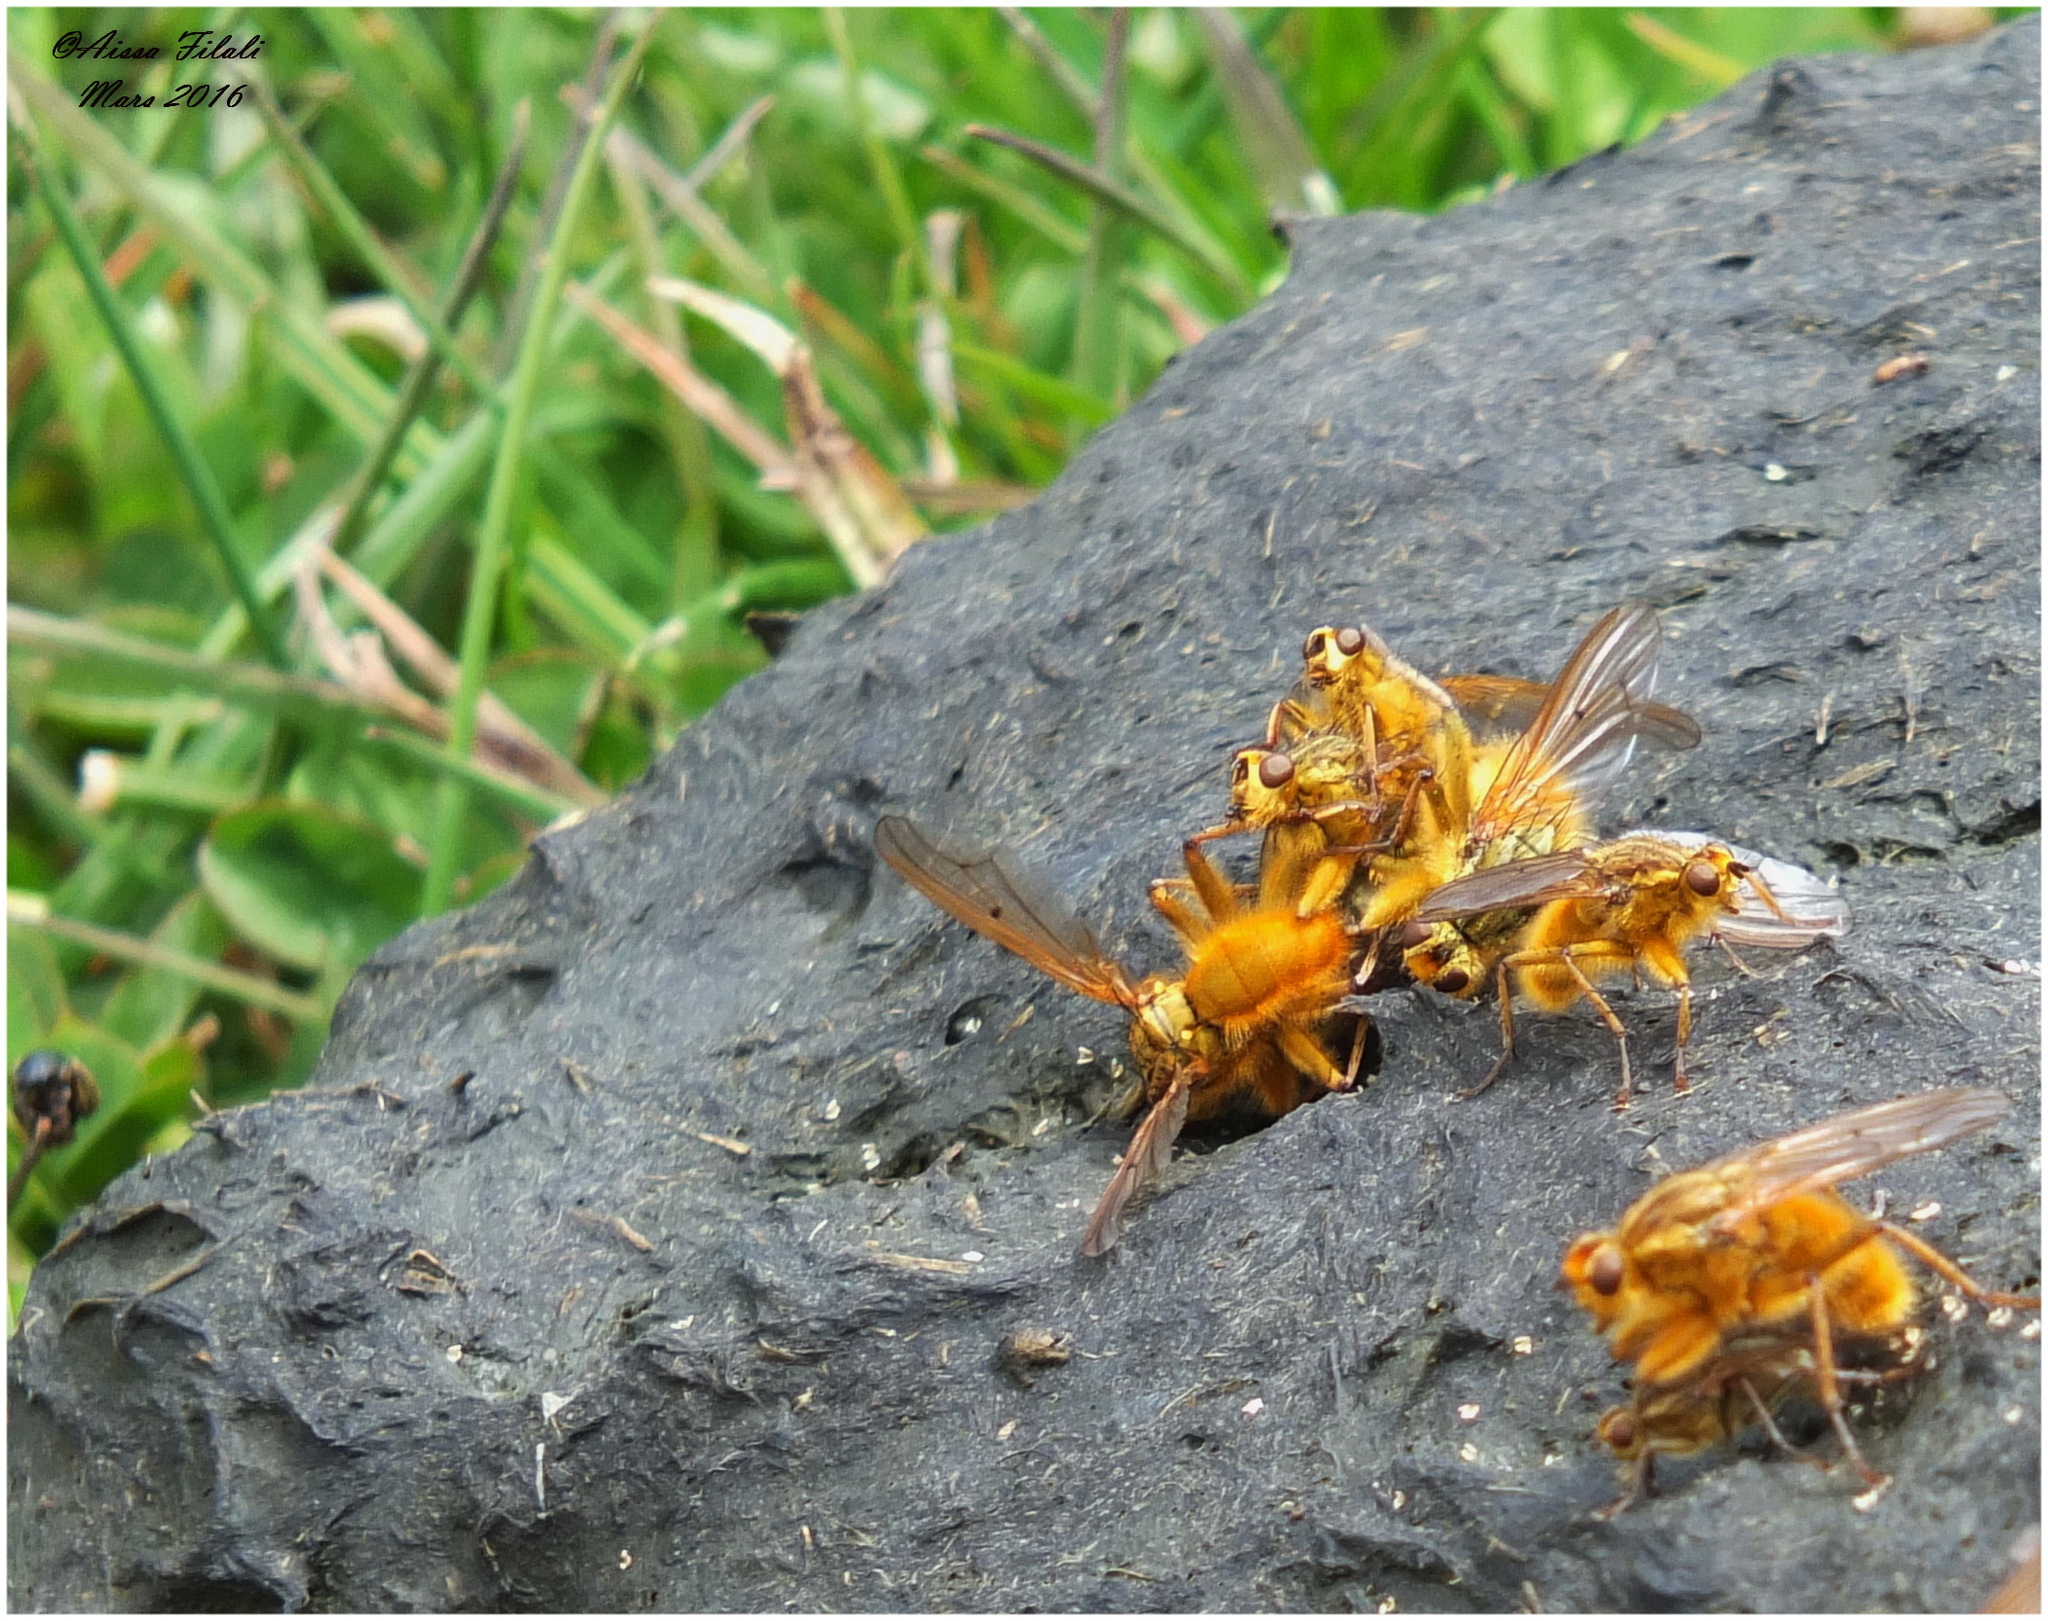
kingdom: Animalia
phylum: Arthropoda
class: Insecta
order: Diptera
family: Scathophagidae
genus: Scathophaga
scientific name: Scathophaga stercoraria
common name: Yellow dung fly
